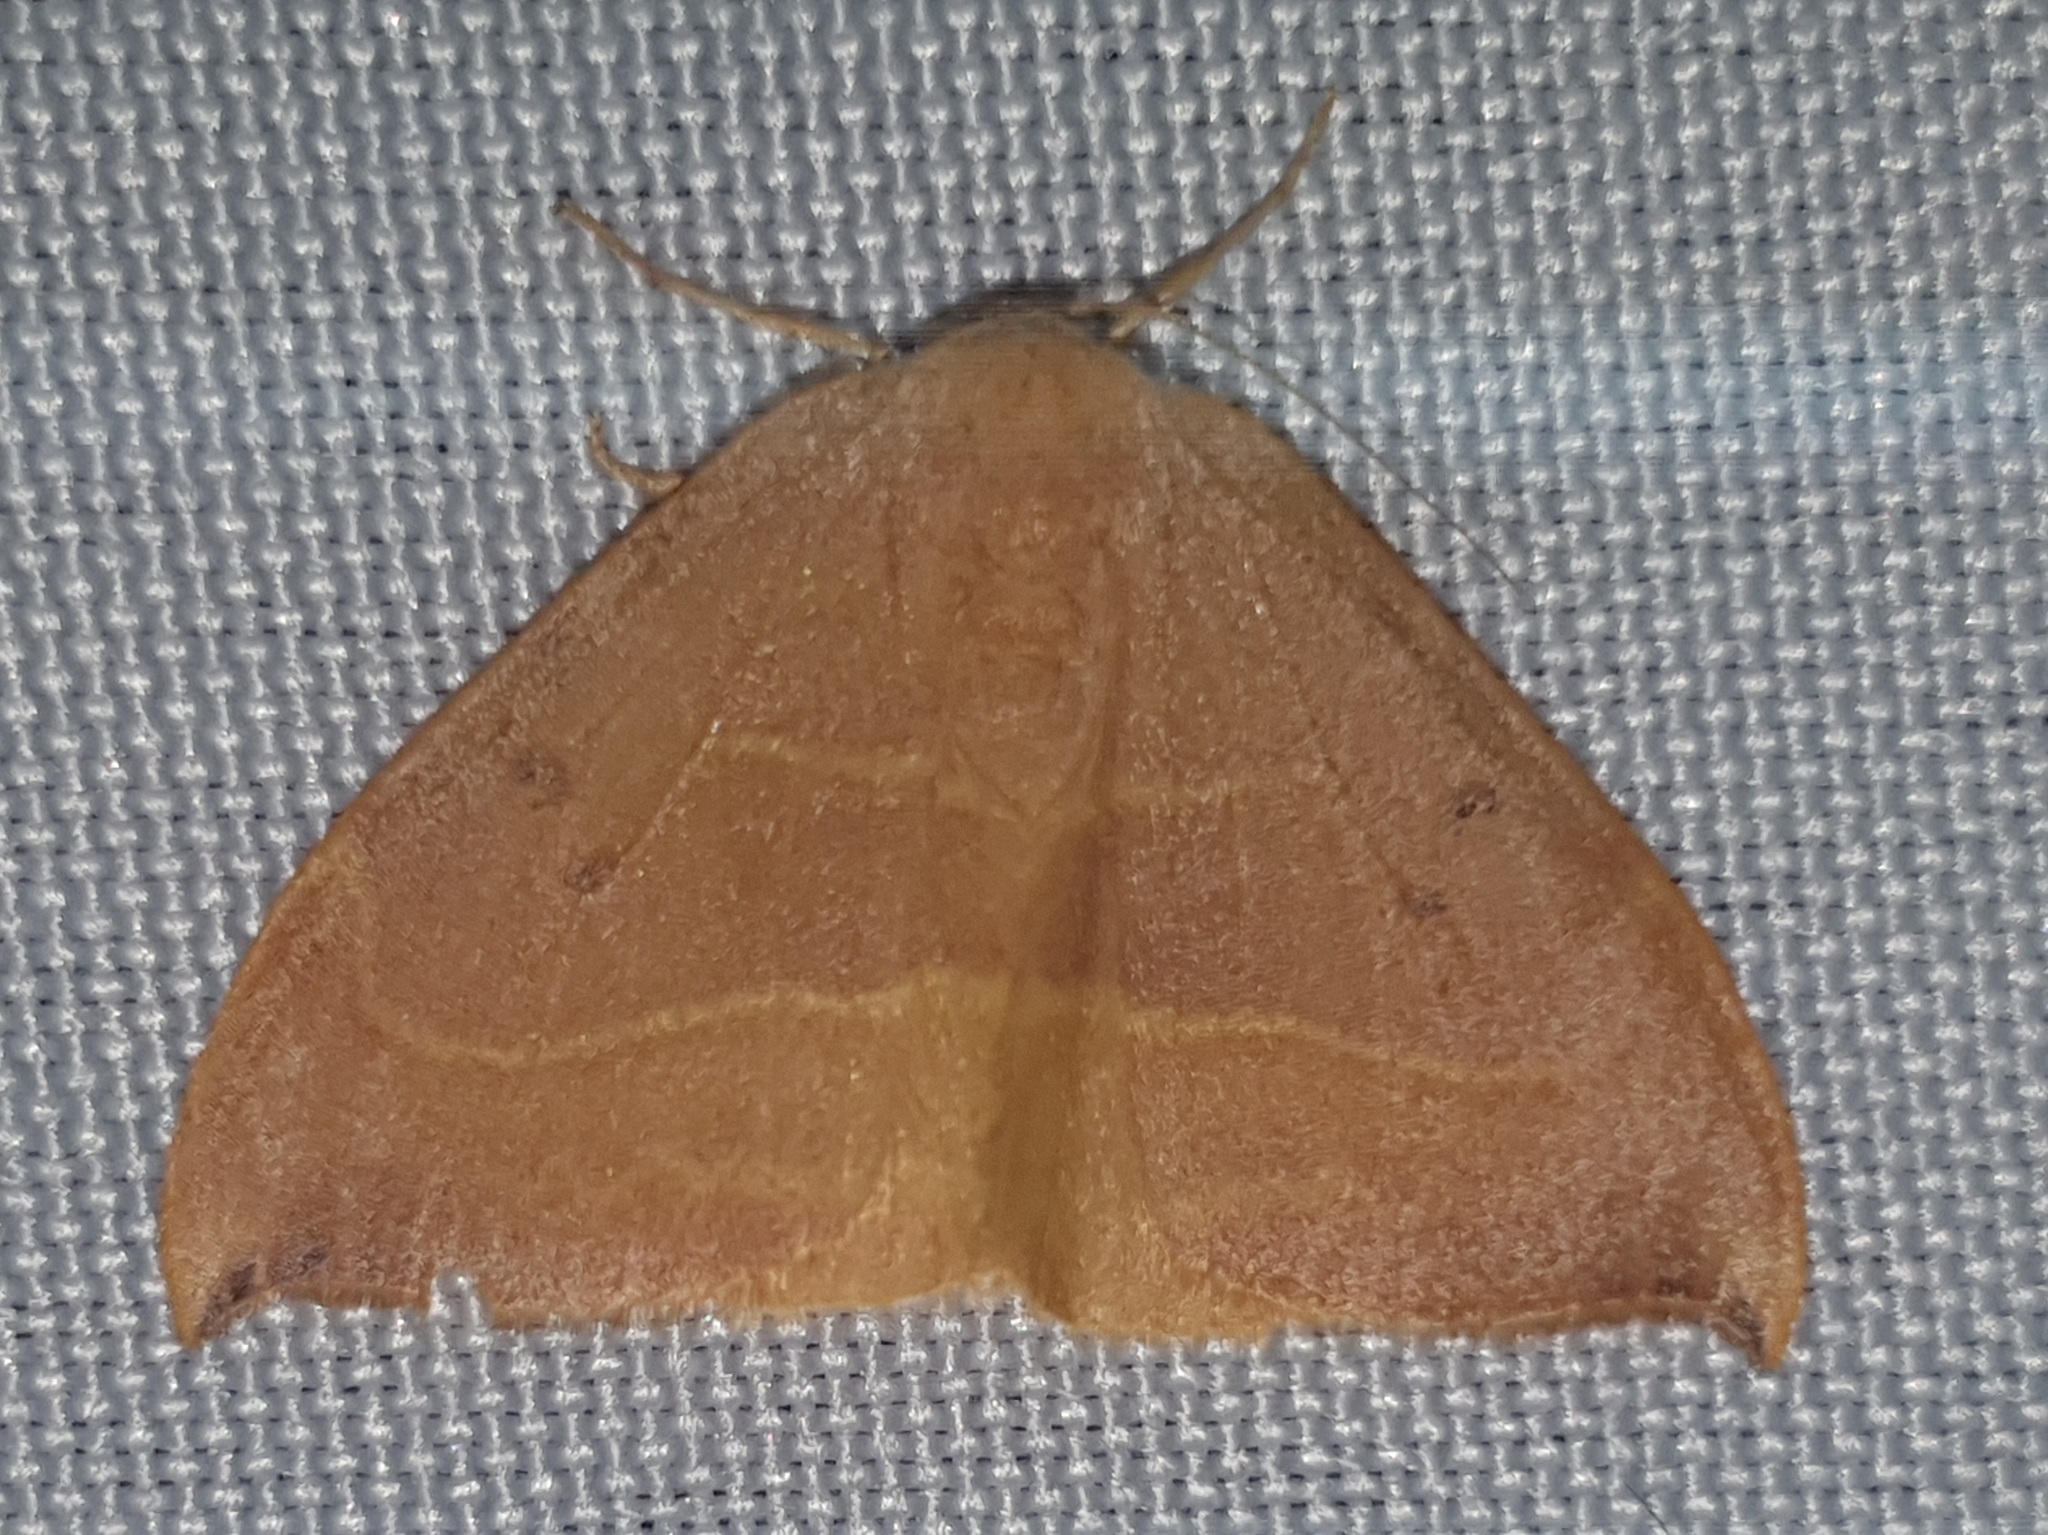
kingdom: Animalia
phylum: Arthropoda
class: Insecta
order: Lepidoptera
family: Drepanidae
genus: Watsonalla
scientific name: Watsonalla binaria
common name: Oak hook-tip
